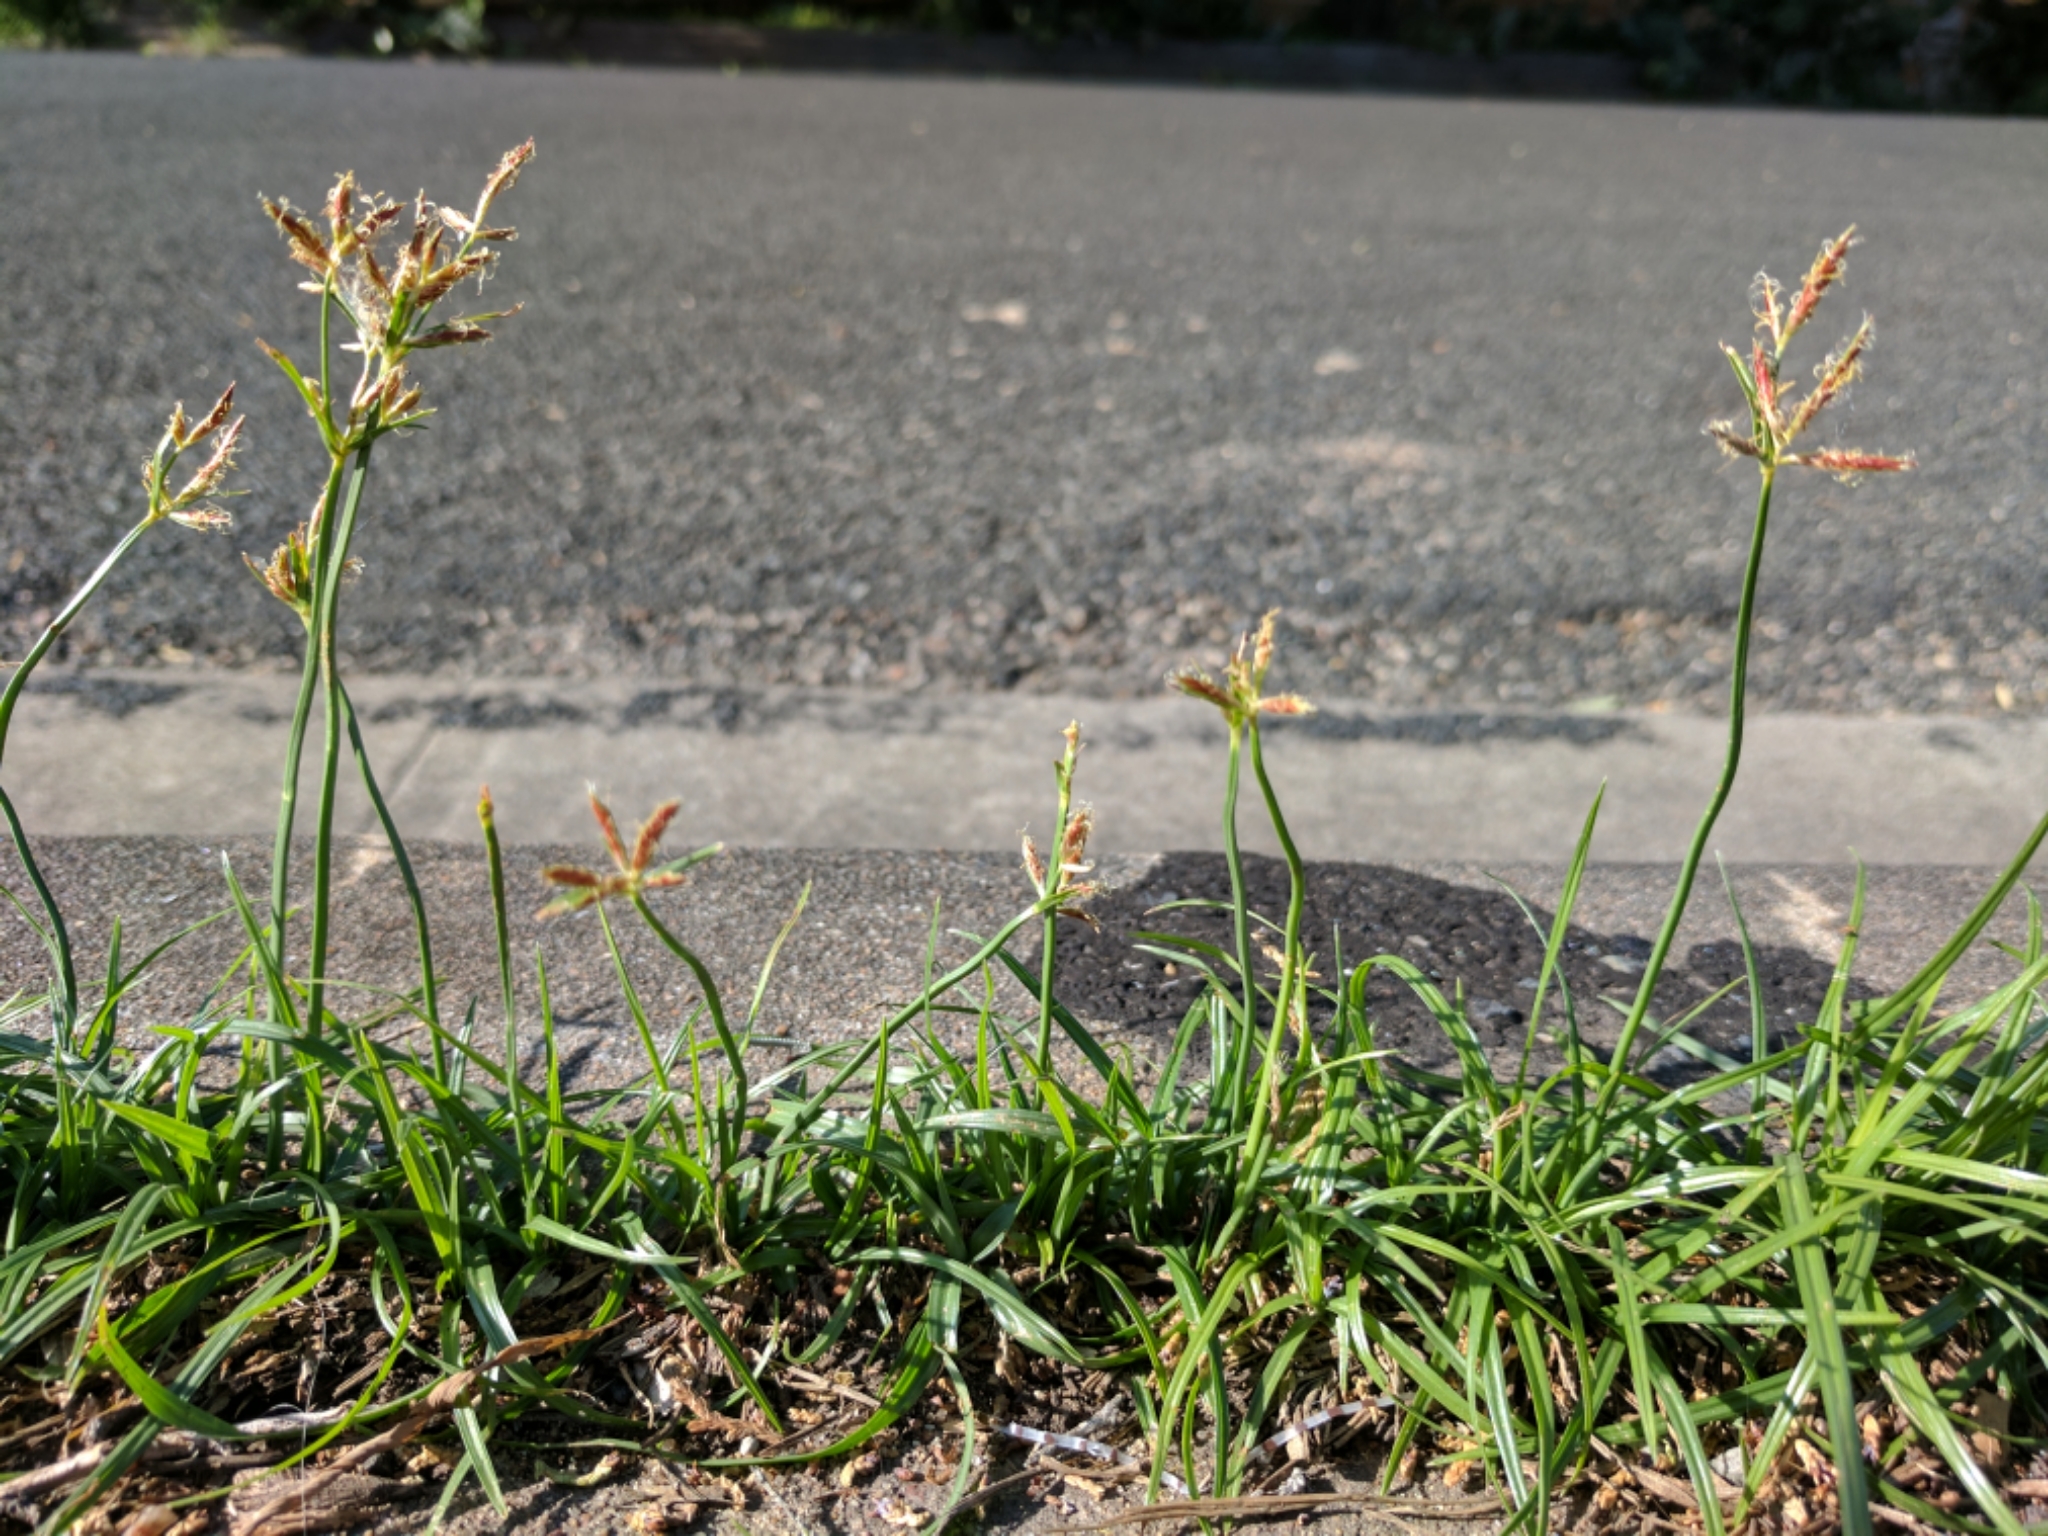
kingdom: Plantae
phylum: Tracheophyta
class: Liliopsida
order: Poales
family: Cyperaceae
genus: Cyperus
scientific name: Cyperus rotundus
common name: Nutgrass
